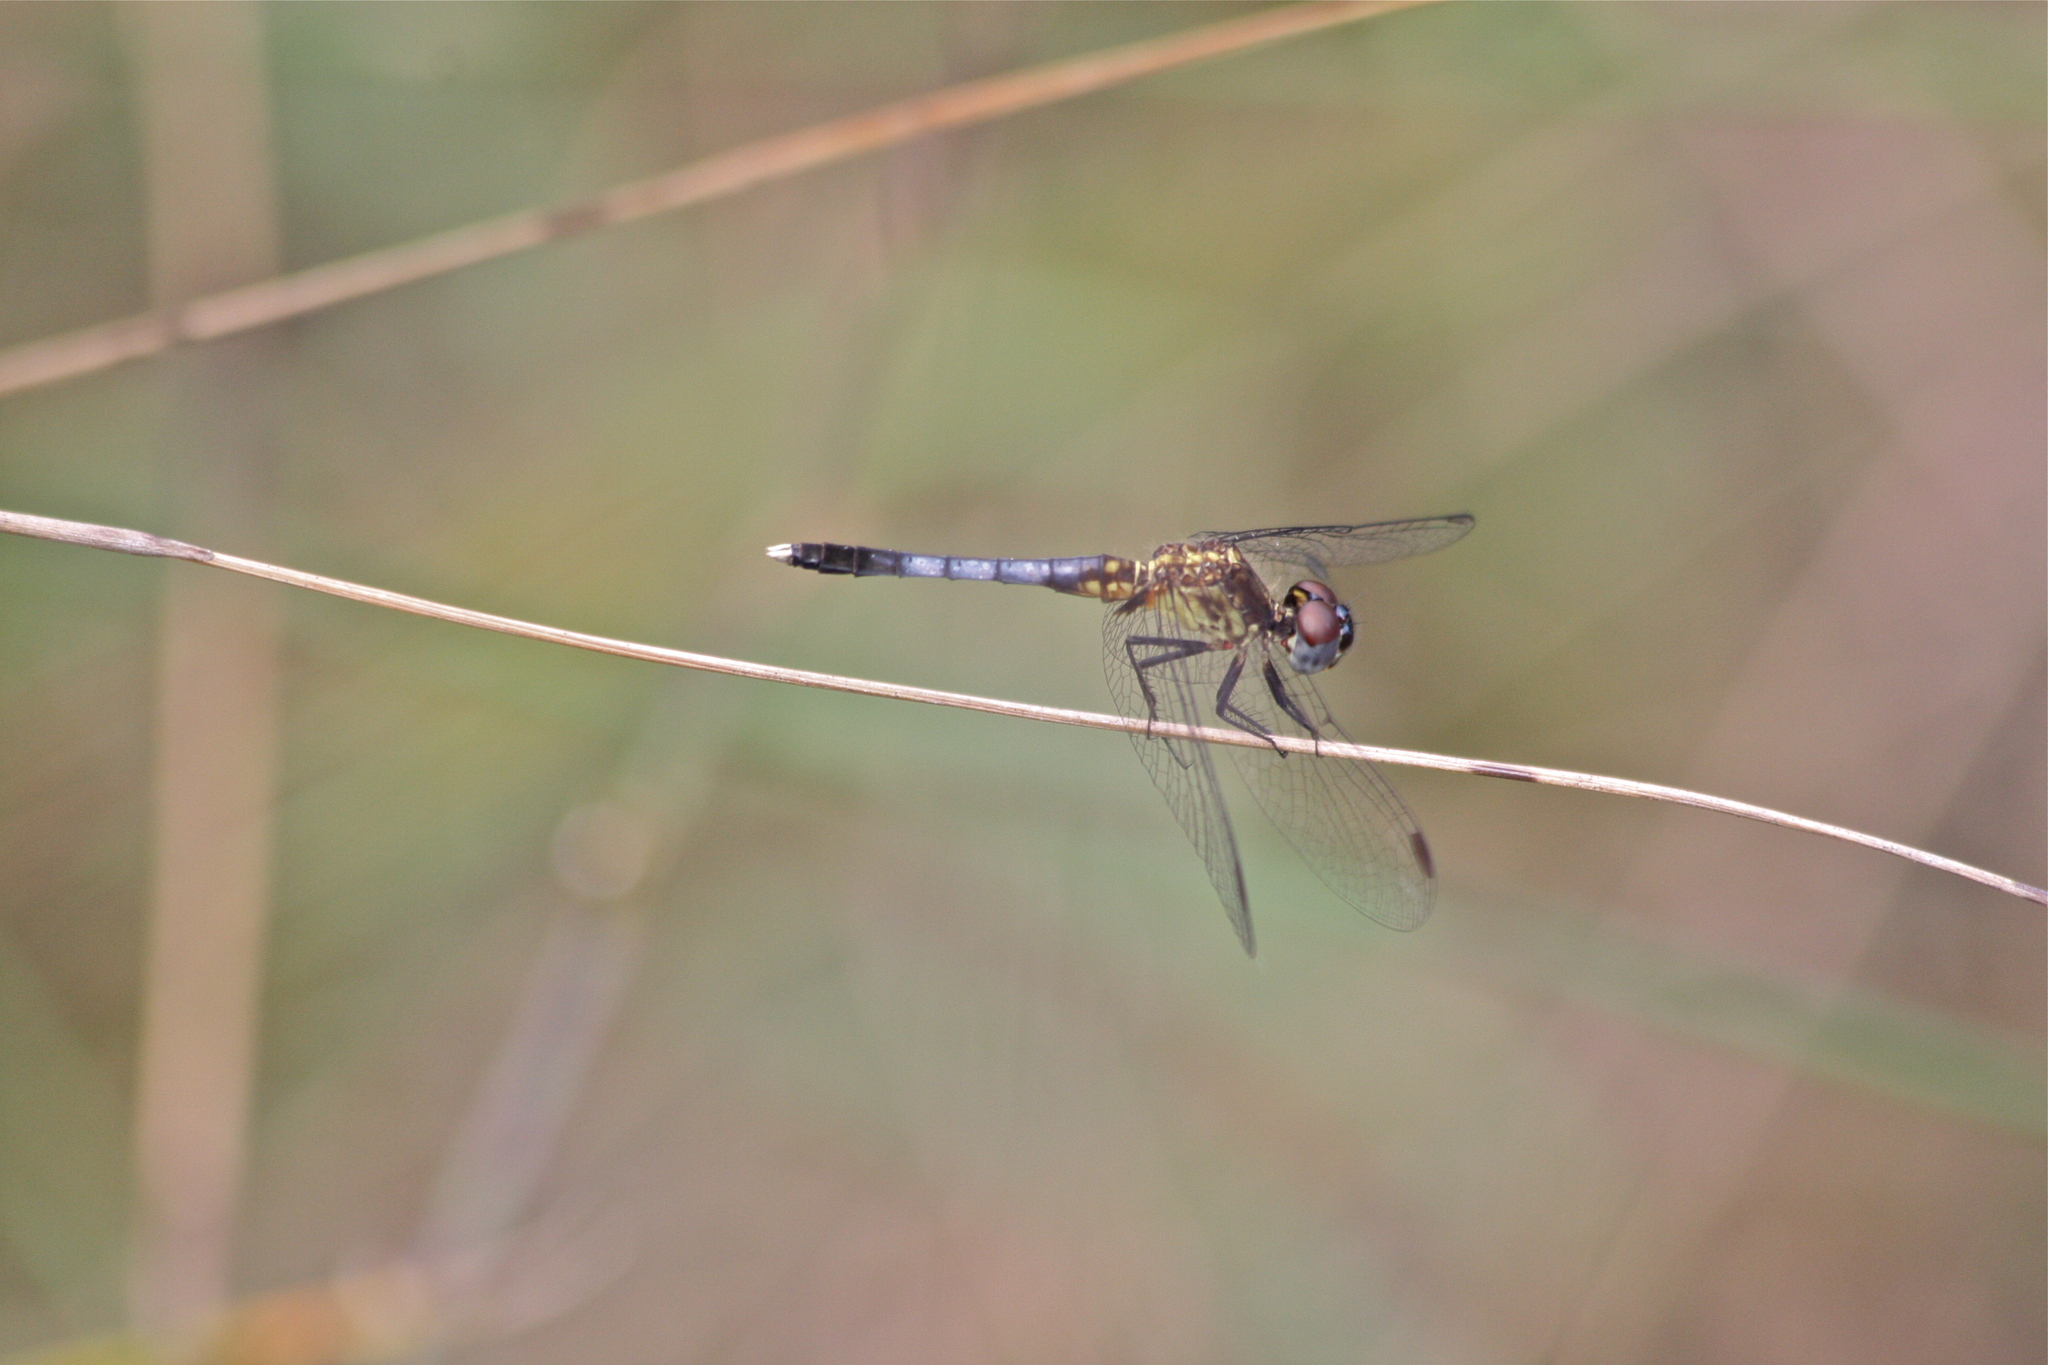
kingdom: Animalia
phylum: Arthropoda
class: Insecta
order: Odonata
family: Libellulidae
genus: Erythrodiplax
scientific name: Erythrodiplax minuscula
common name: Little blue dragonlet
